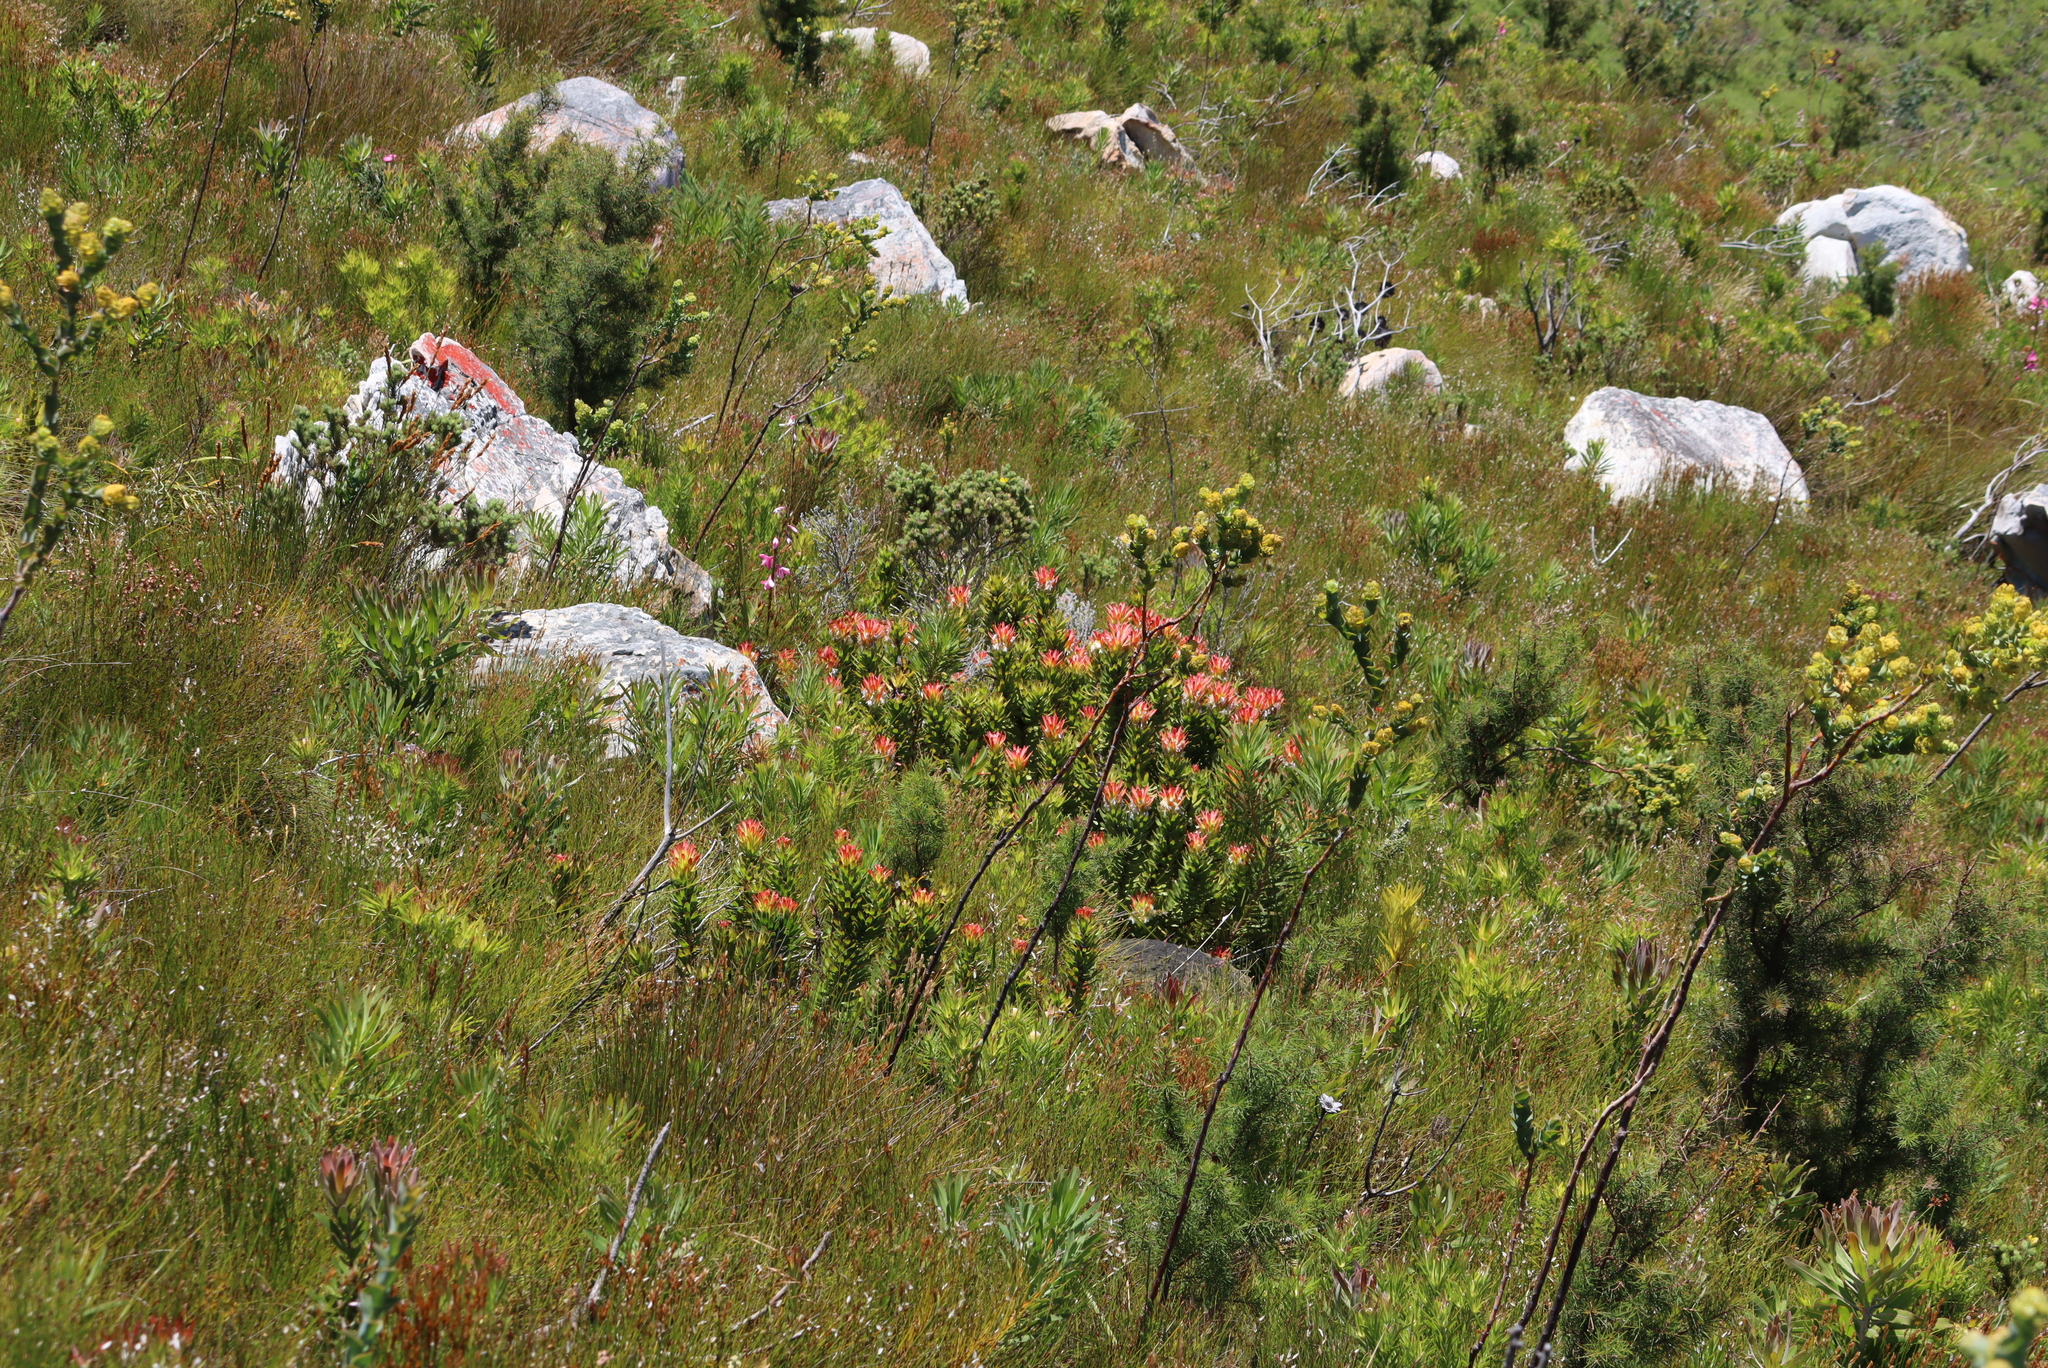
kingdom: Plantae
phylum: Tracheophyta
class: Magnoliopsida
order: Proteales
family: Proteaceae
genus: Mimetes
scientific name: Mimetes cucullatus
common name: Common pagoda
